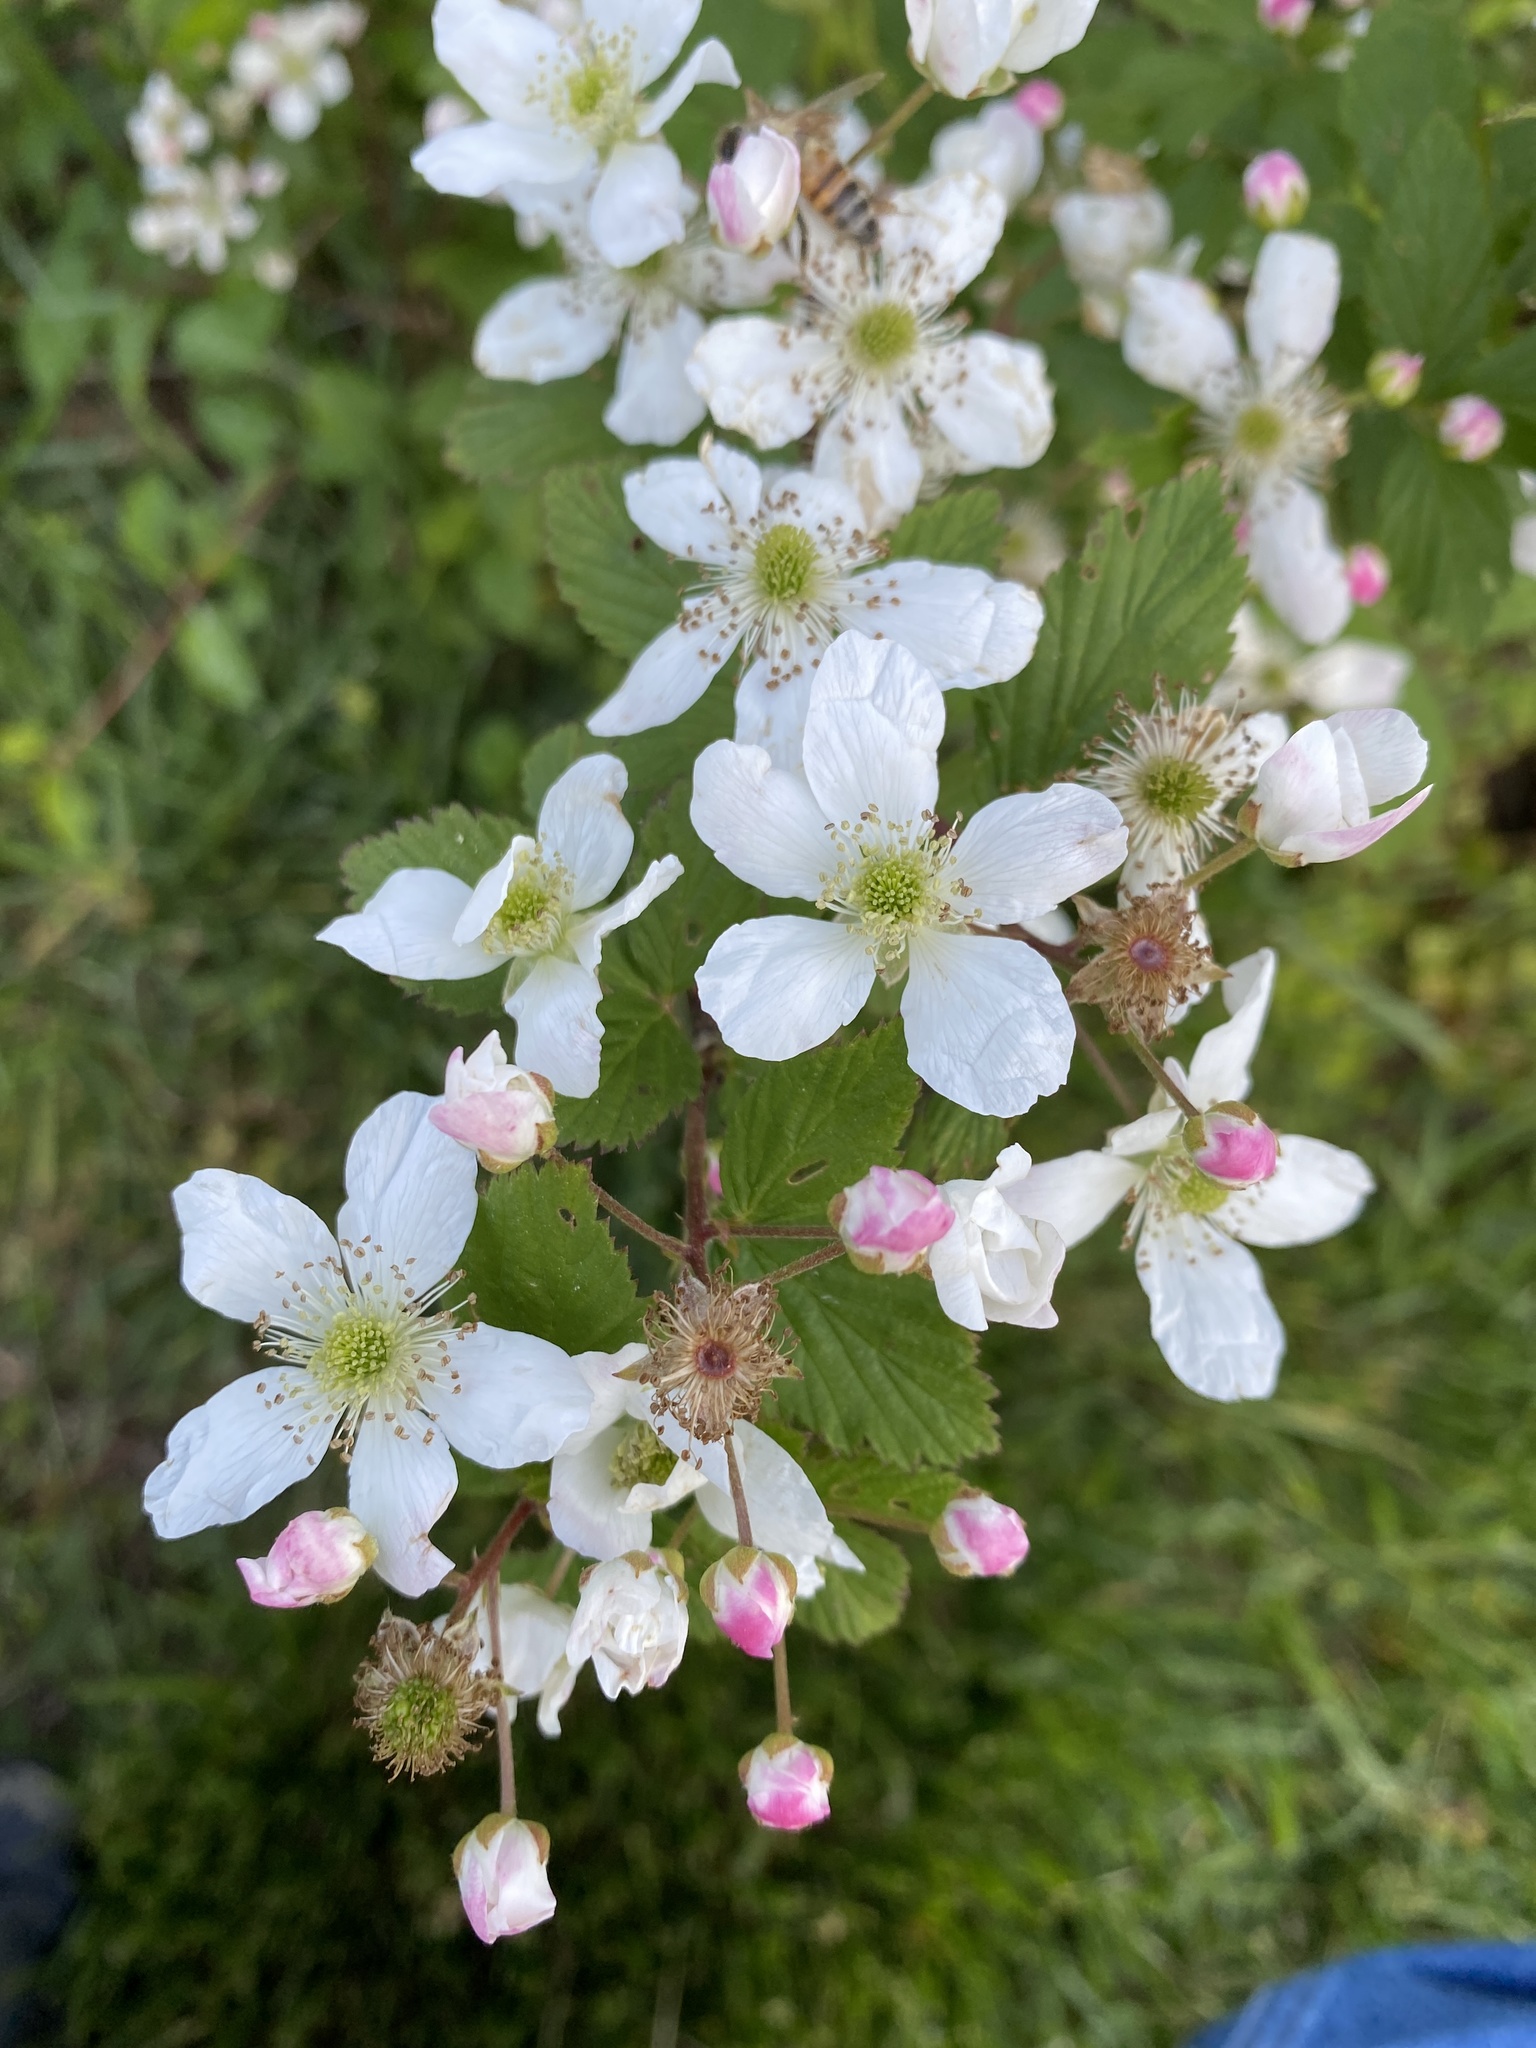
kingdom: Plantae
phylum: Tracheophyta
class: Magnoliopsida
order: Rosales
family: Rosaceae
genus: Rubus
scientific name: Rubus pensilvanicus
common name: Pennsylvania blackberry
